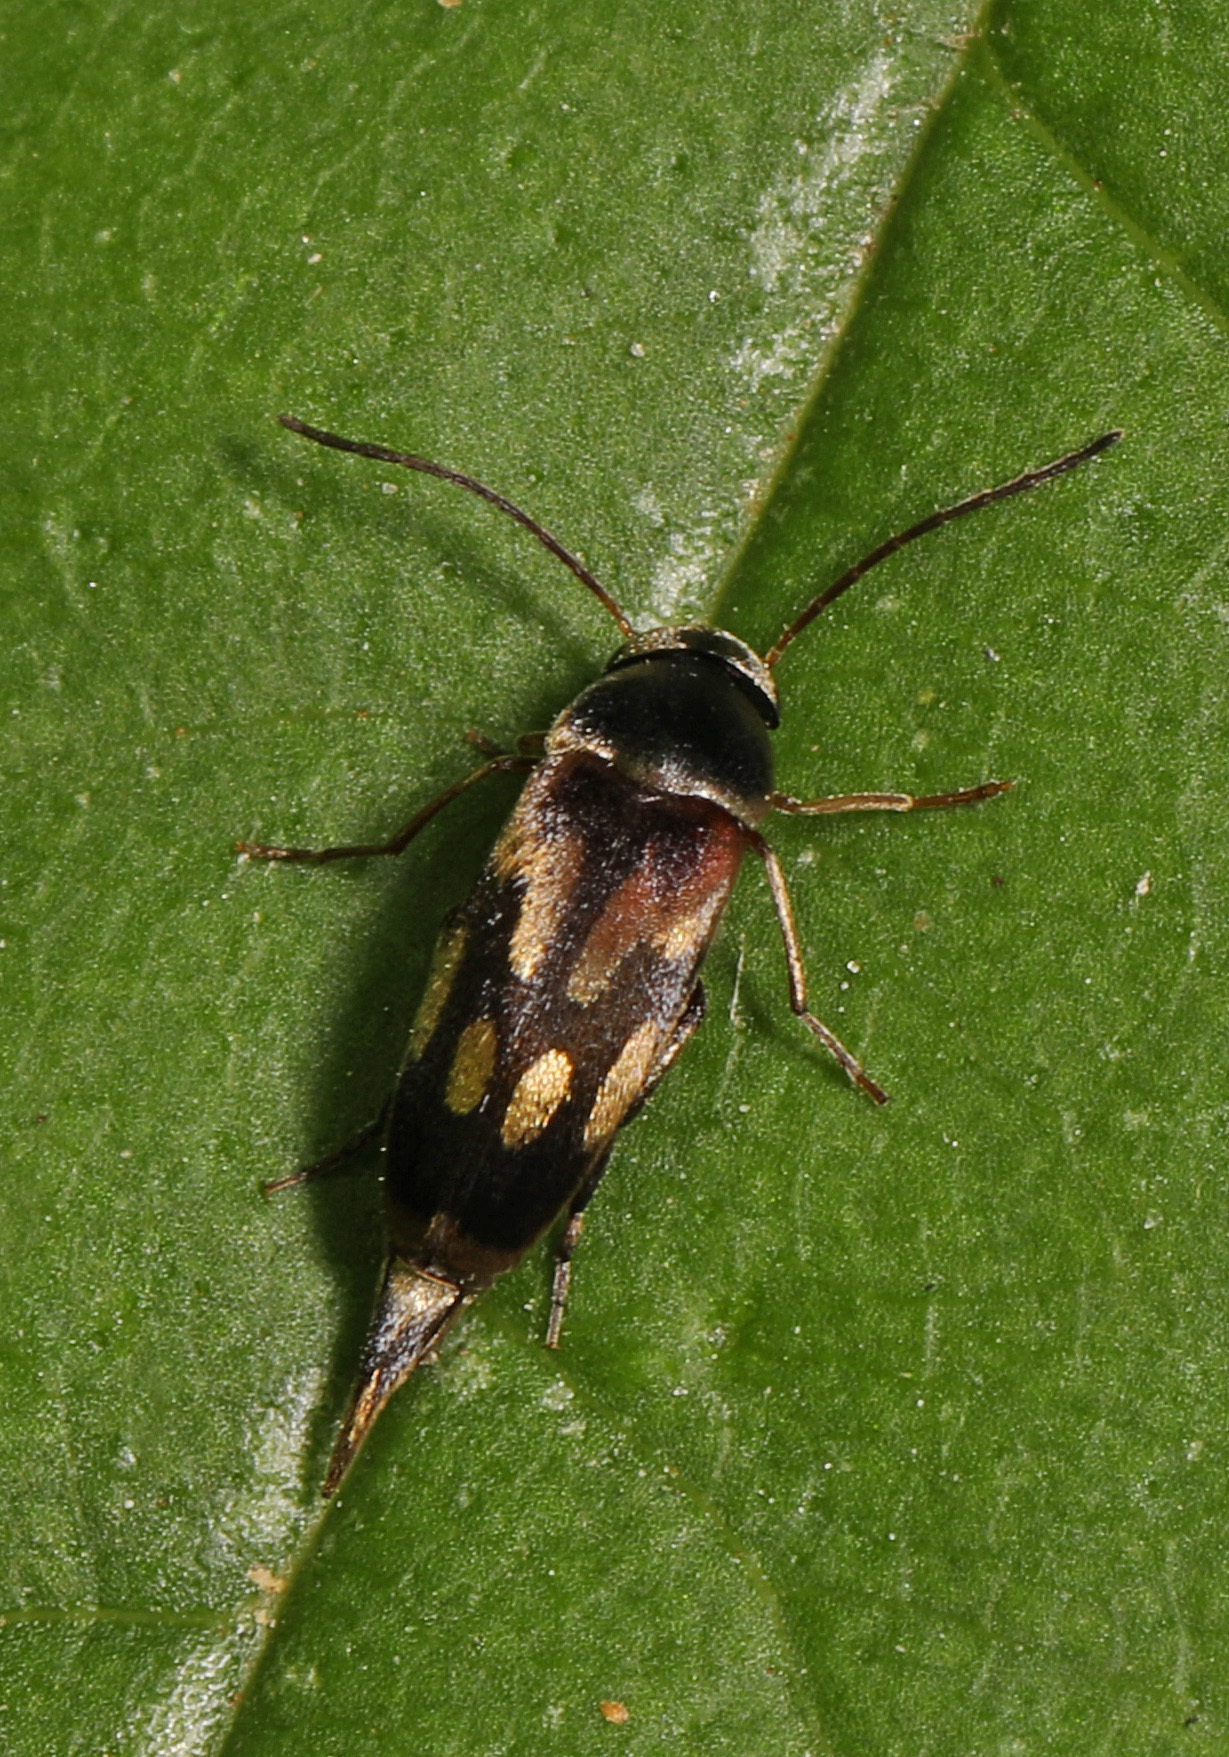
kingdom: Animalia
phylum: Arthropoda
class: Insecta
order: Coleoptera
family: Mordellidae
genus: Falsomordellistena
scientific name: Falsomordellistena bihamata
